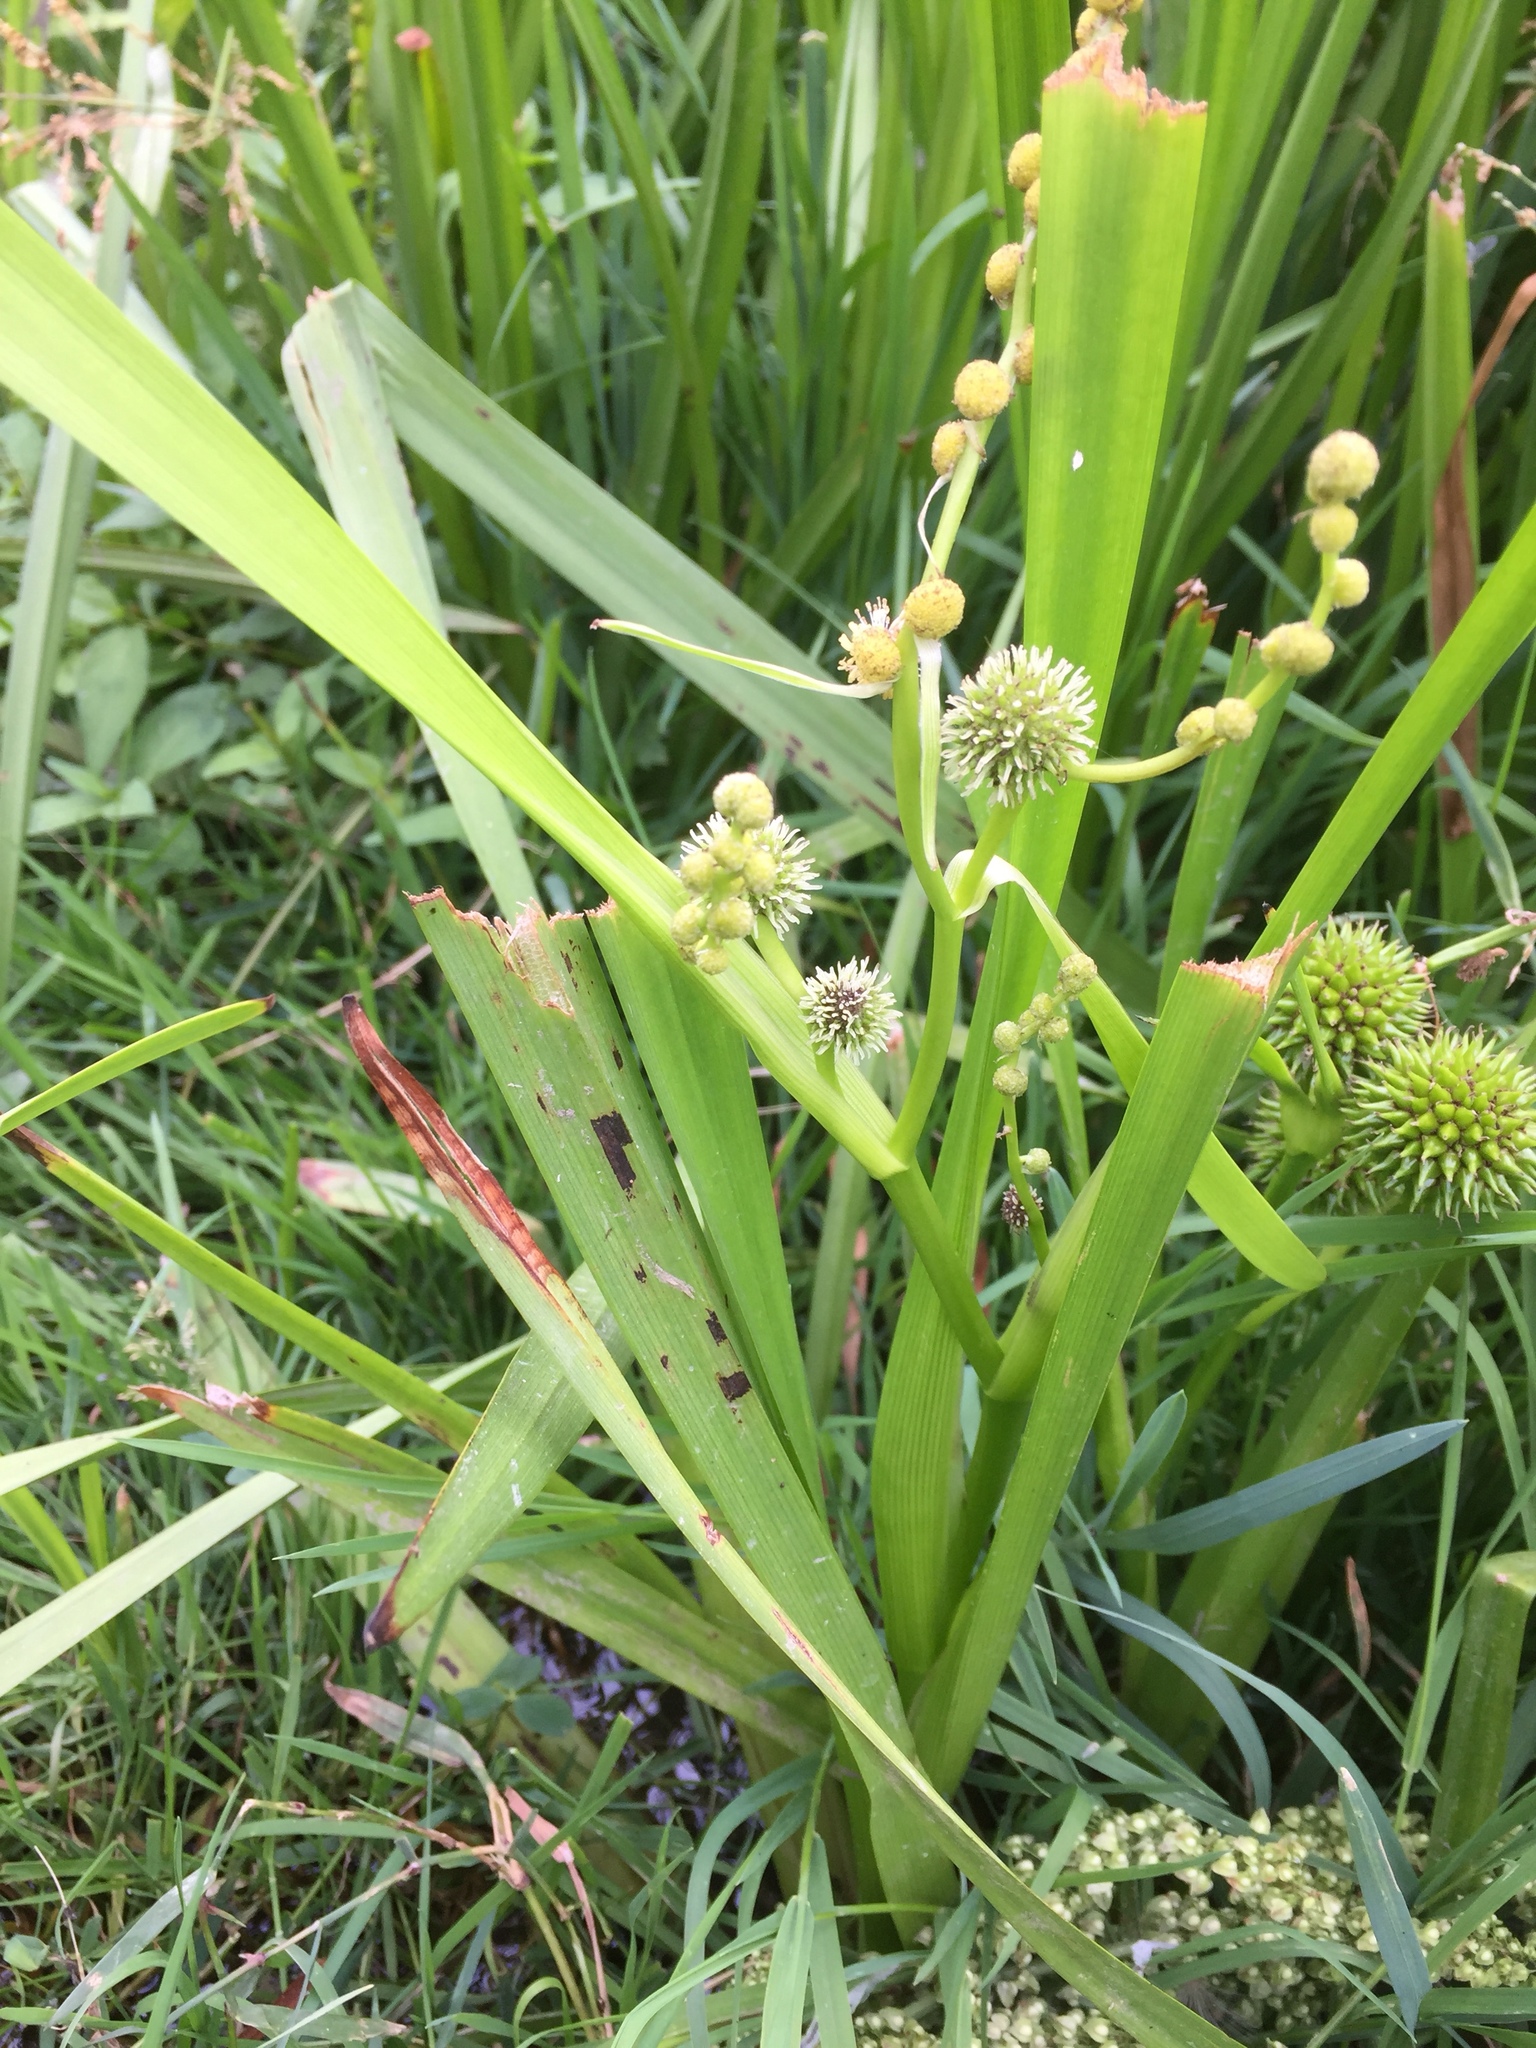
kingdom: Plantae
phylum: Tracheophyta
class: Liliopsida
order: Poales
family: Typhaceae
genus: Sparganium
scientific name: Sparganium erectum
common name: Branched bur-reed
